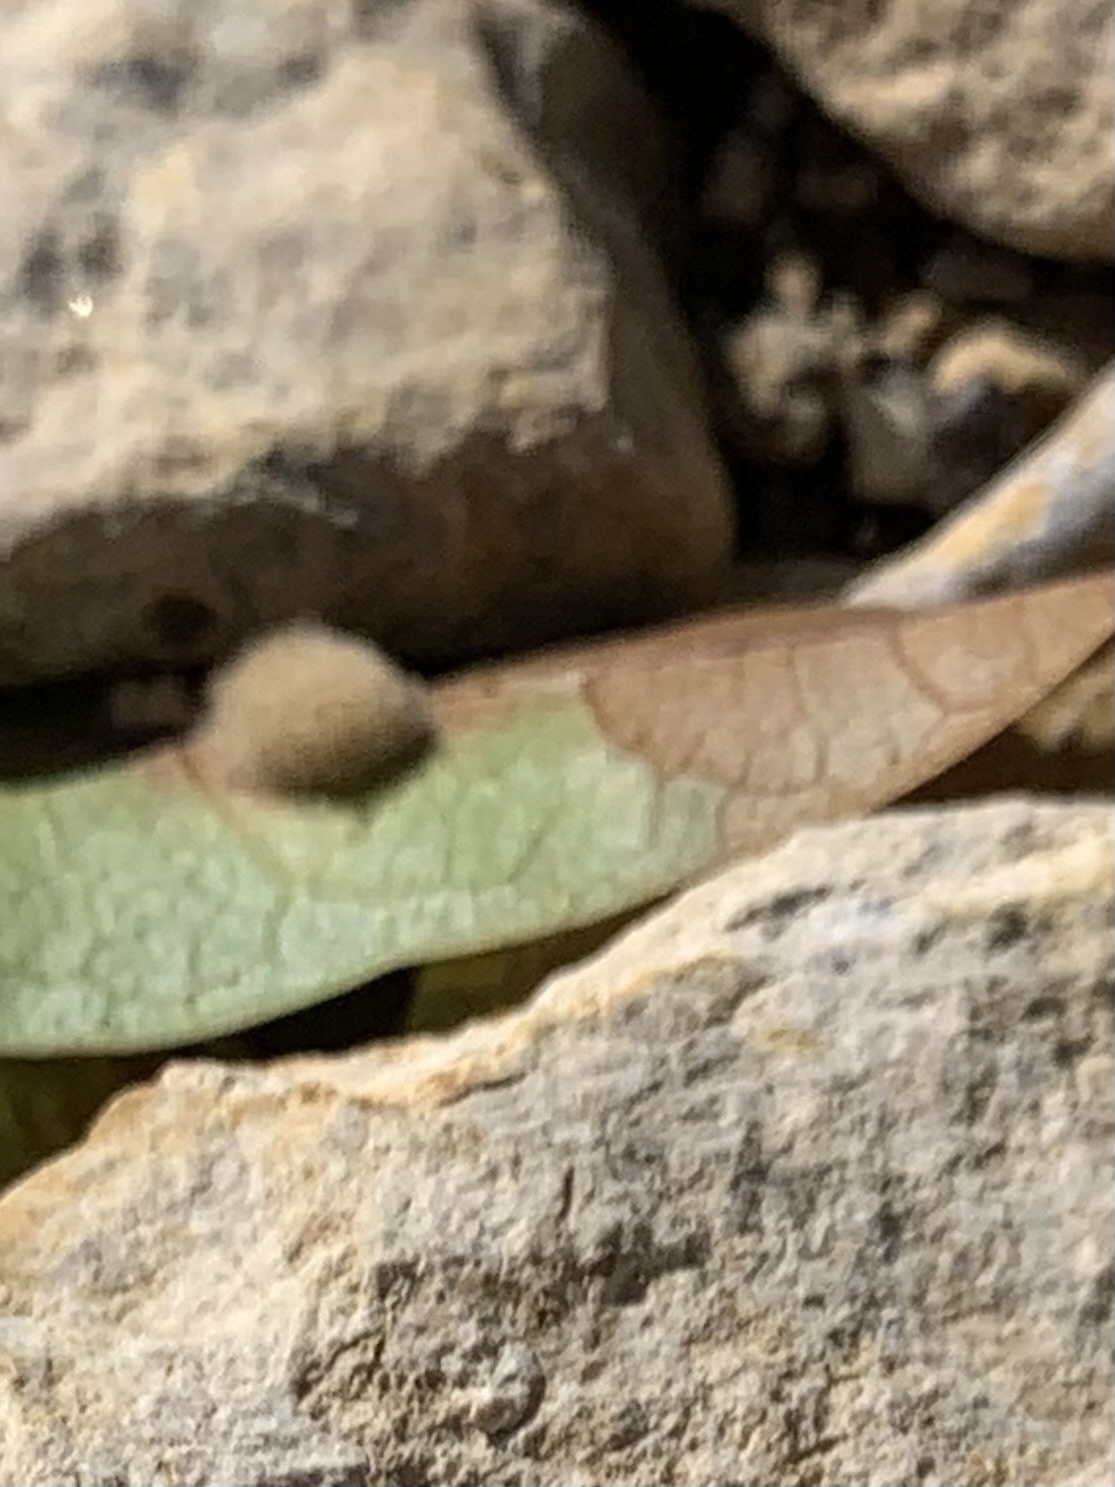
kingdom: Animalia
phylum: Arthropoda
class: Insecta
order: Hymenoptera
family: Cynipidae
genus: Andricus
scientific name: Andricus Druon quercuslanigerum
